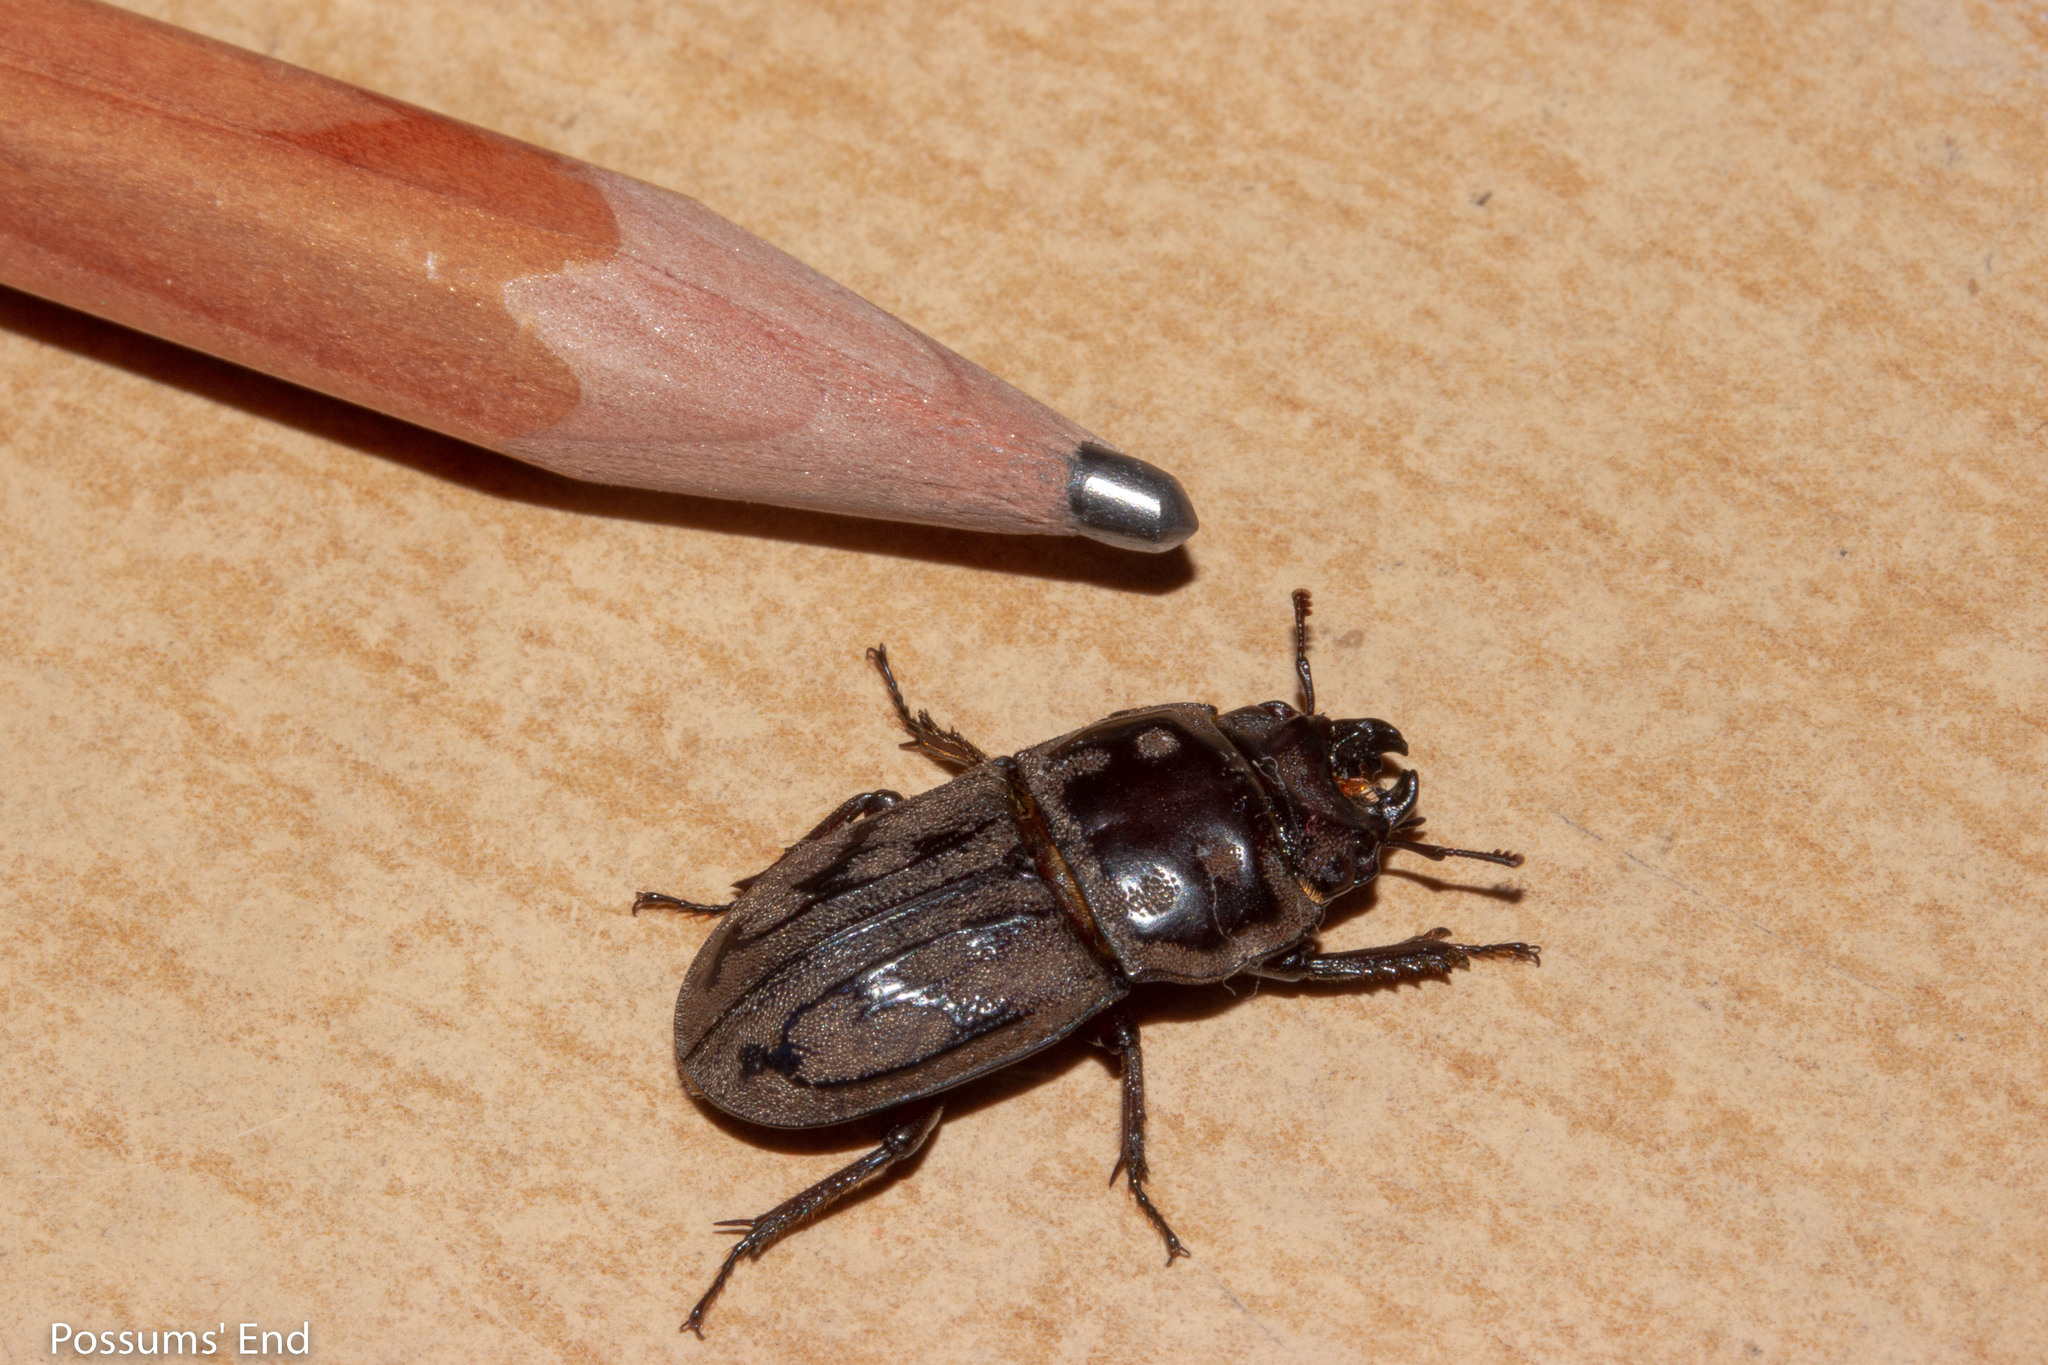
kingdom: Animalia
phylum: Arthropoda
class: Insecta
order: Coleoptera
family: Lucanidae
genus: Paralissotes
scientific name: Paralissotes reticulatus
